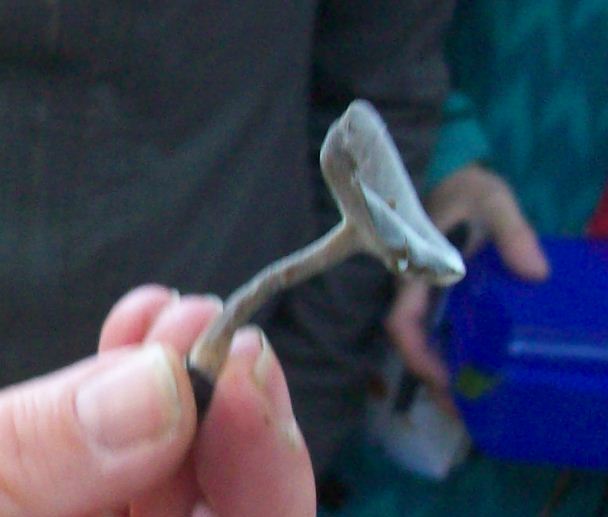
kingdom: Fungi
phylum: Ascomycota
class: Pezizomycetes
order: Pezizales
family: Helvellaceae
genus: Helvella
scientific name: Helvella macropus
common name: Felt saddle
